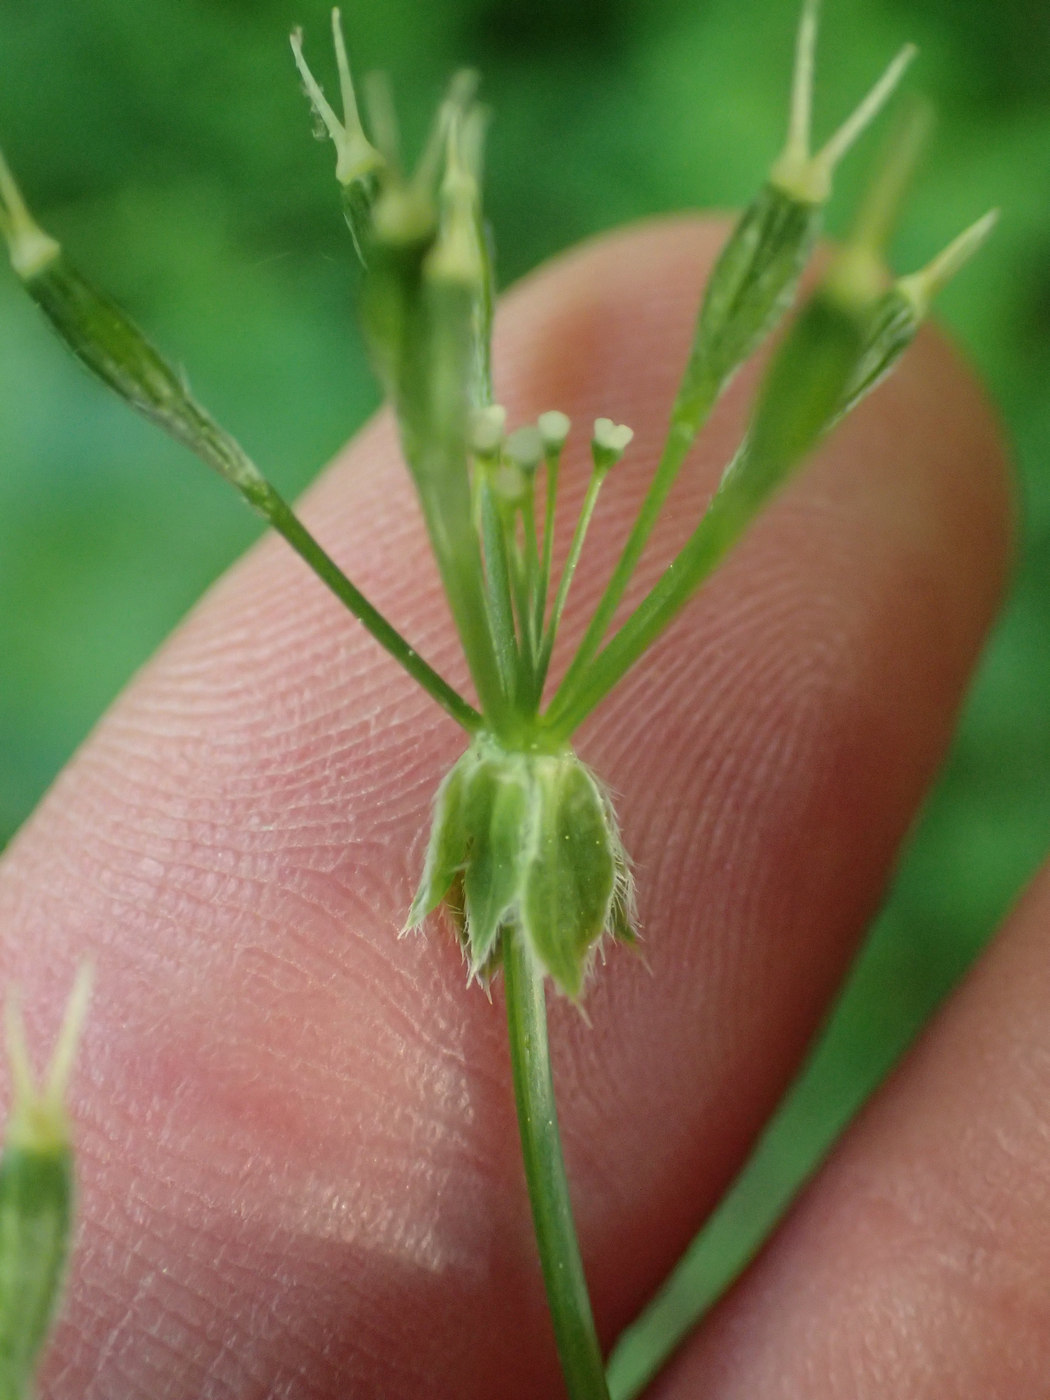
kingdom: Plantae
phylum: Tracheophyta
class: Magnoliopsida
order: Apiales
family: Apiaceae
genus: Osmorhiza
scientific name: Osmorhiza longistylis
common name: Smooth sweet cicely
